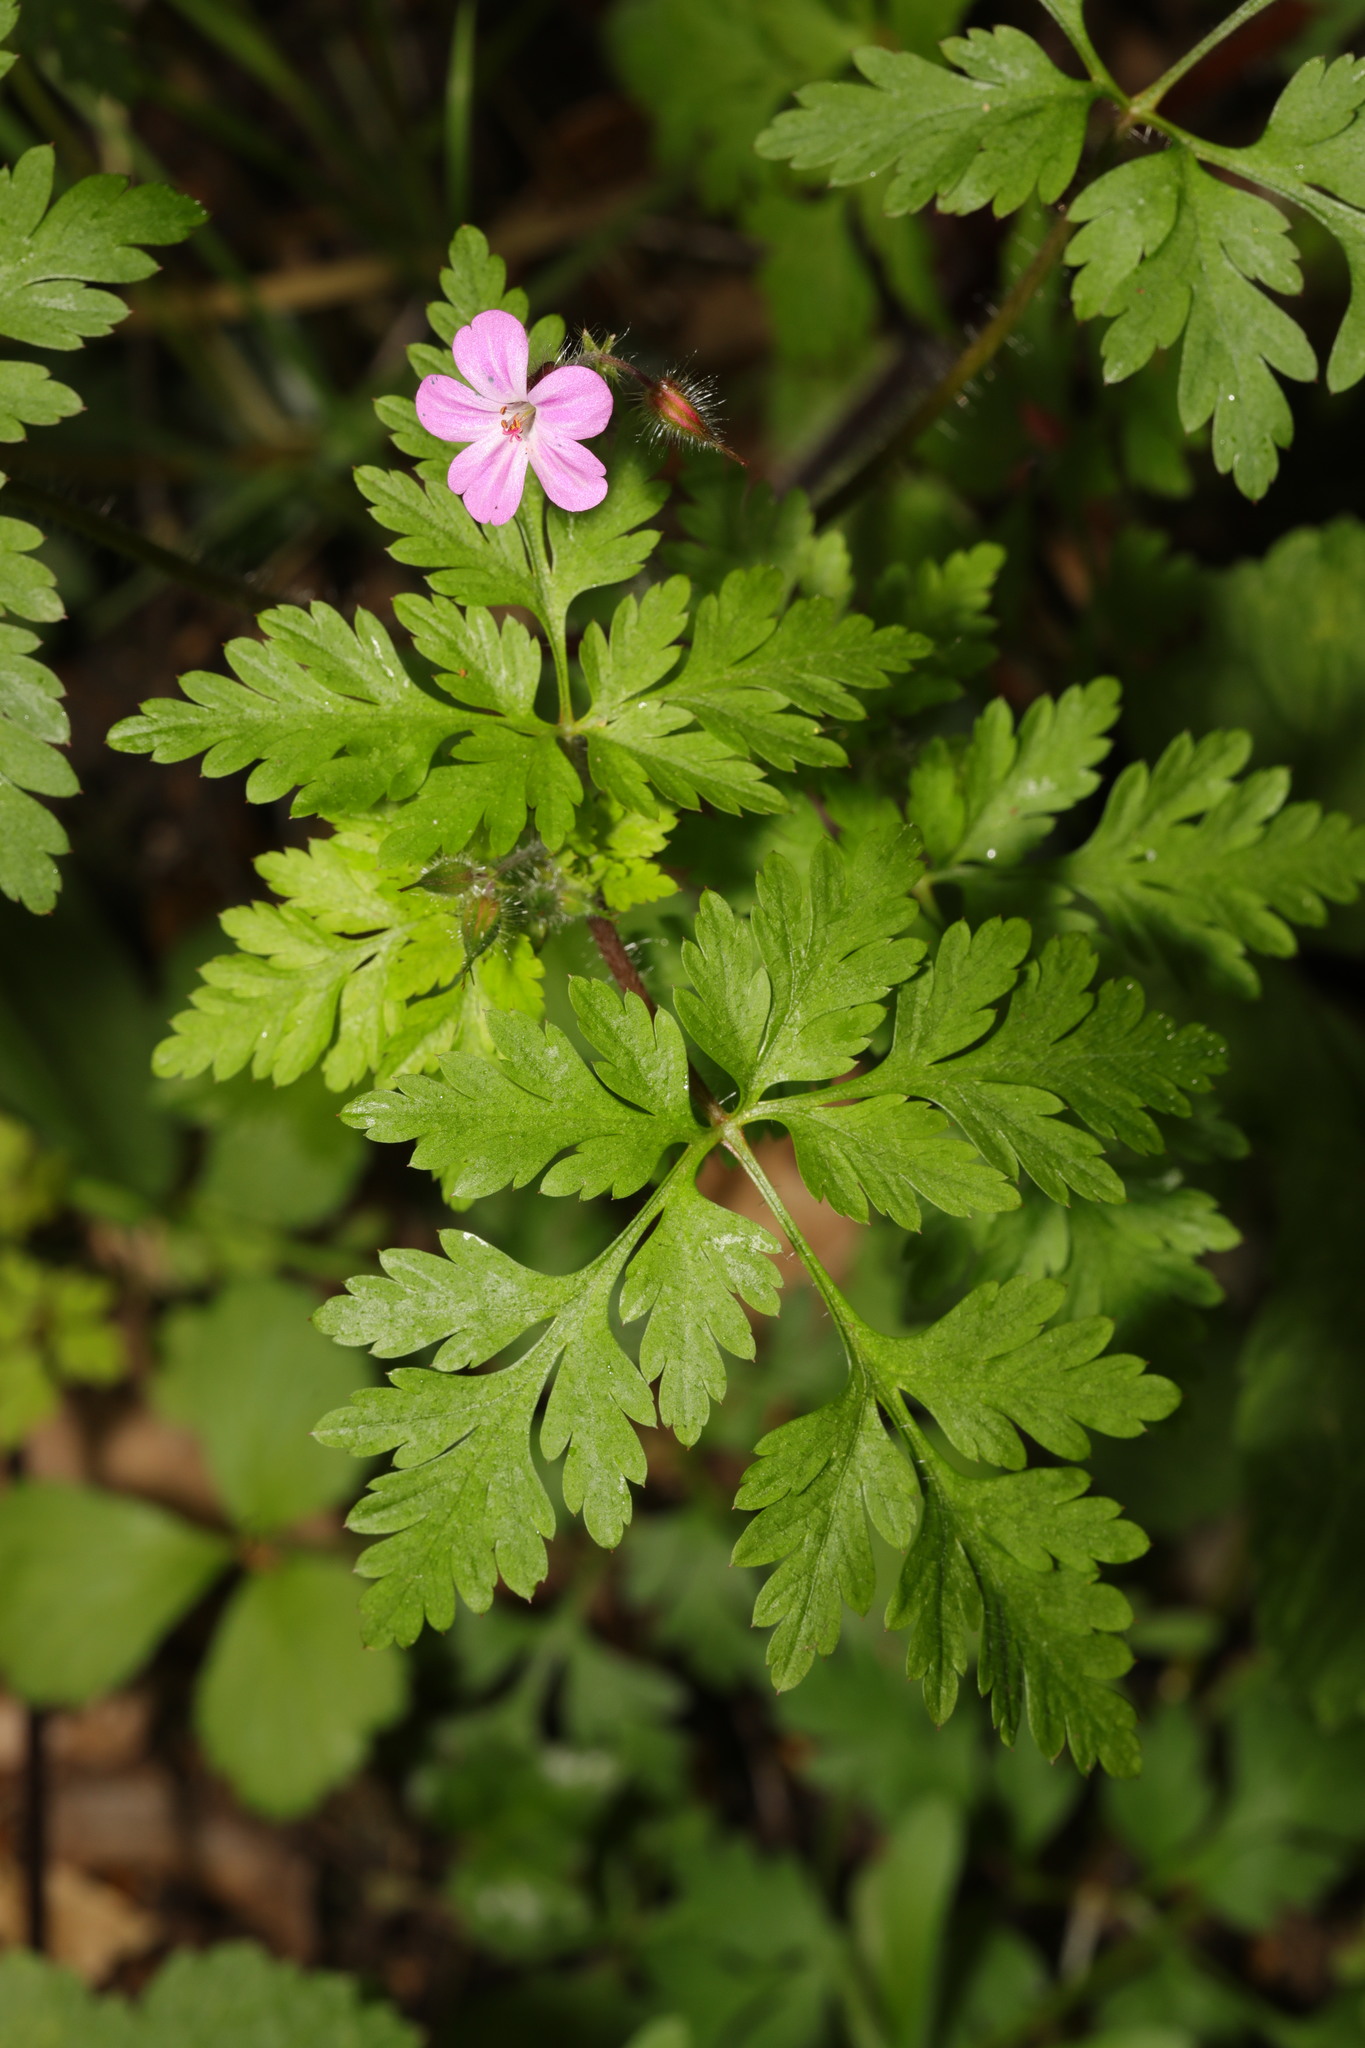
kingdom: Plantae
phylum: Tracheophyta
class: Magnoliopsida
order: Geraniales
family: Geraniaceae
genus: Geranium
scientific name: Geranium robertianum
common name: Herb-robert
